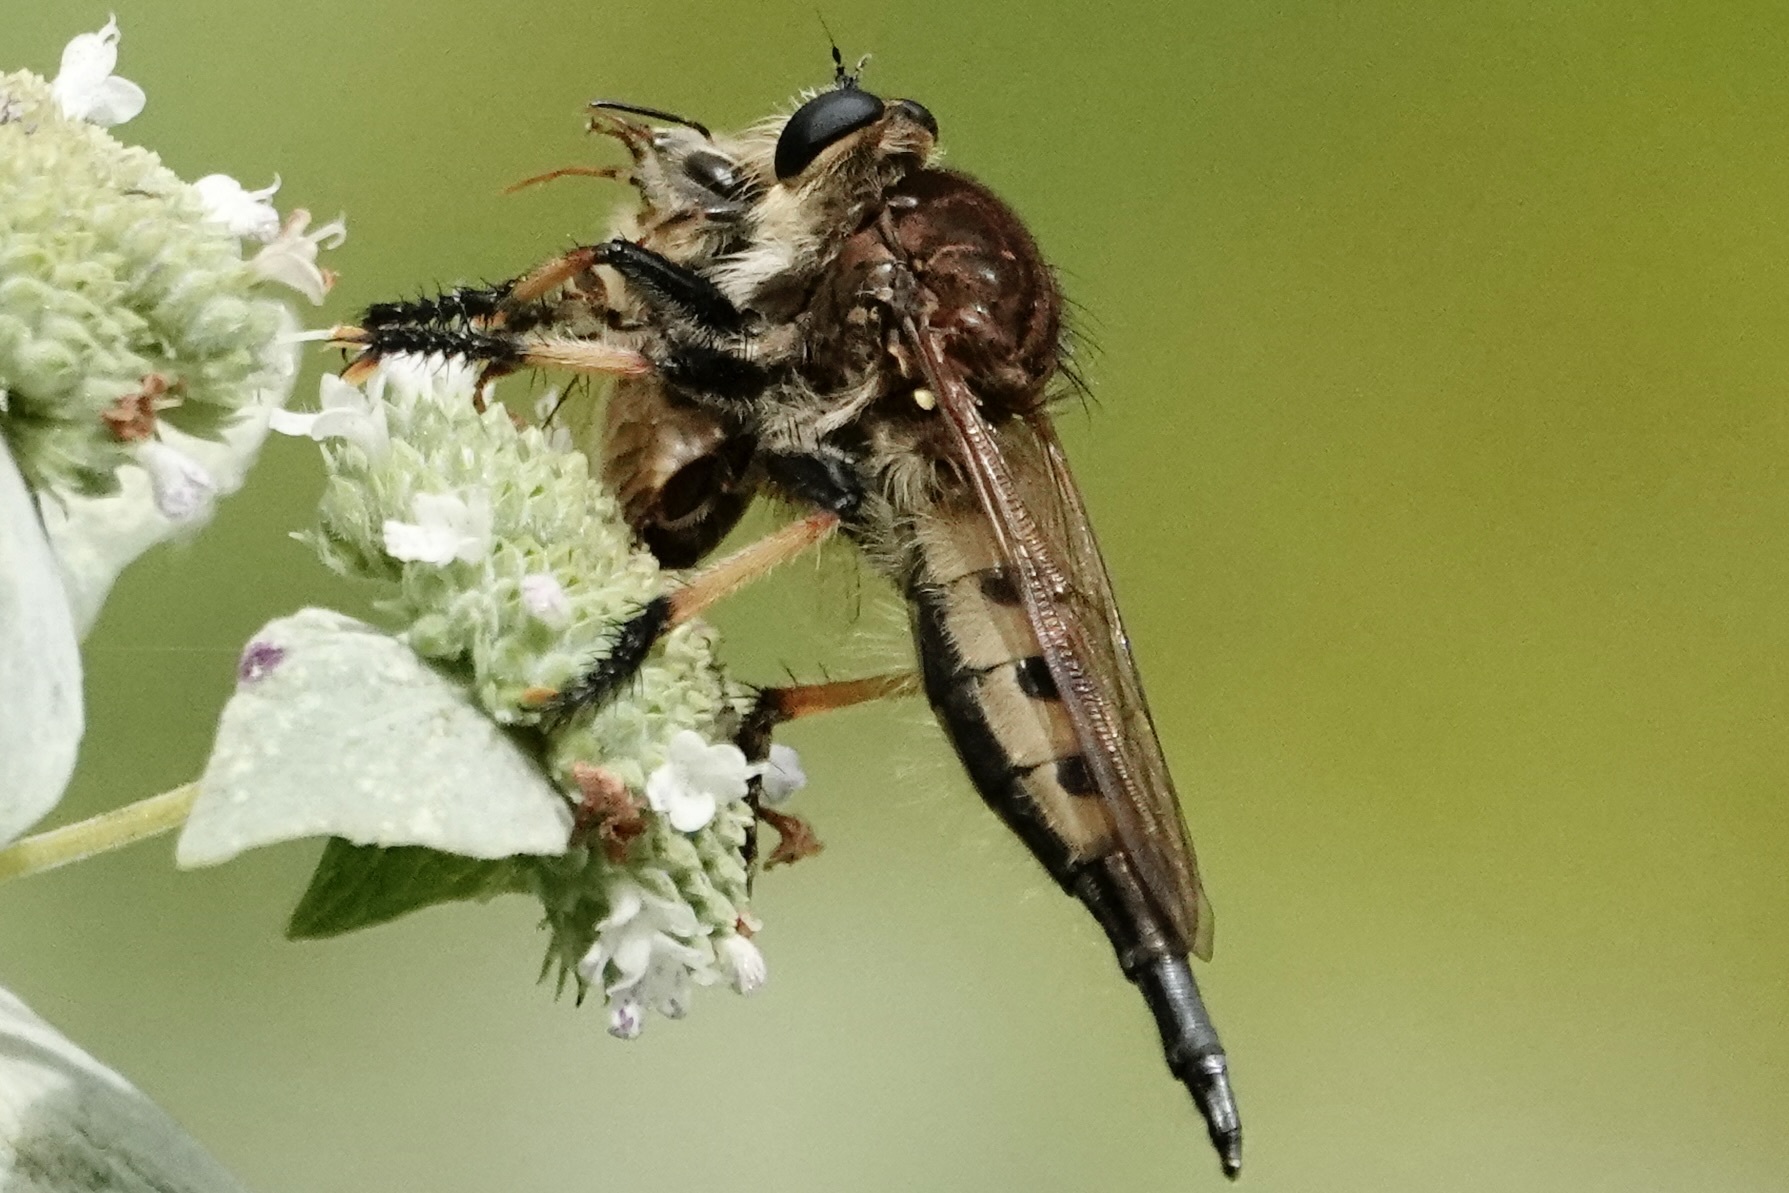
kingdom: Animalia
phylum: Arthropoda
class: Insecta
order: Diptera
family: Asilidae
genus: Promachus
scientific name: Promachus rufipes
